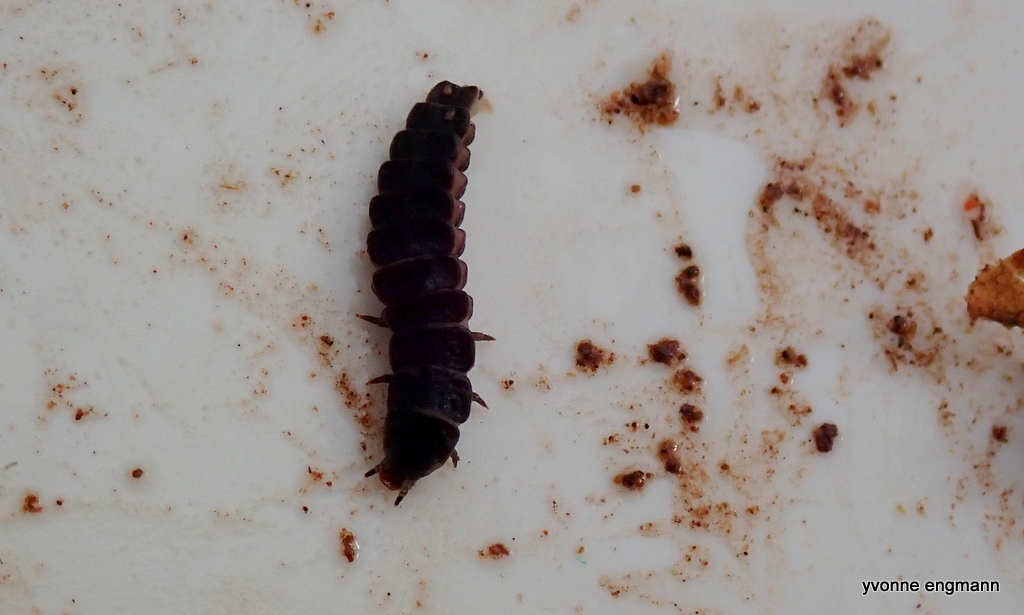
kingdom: Animalia
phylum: Arthropoda
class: Insecta
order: Coleoptera
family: Lampyridae
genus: Phosphaenus
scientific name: Phosphaenus hemipterus
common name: Short-winged firefly
